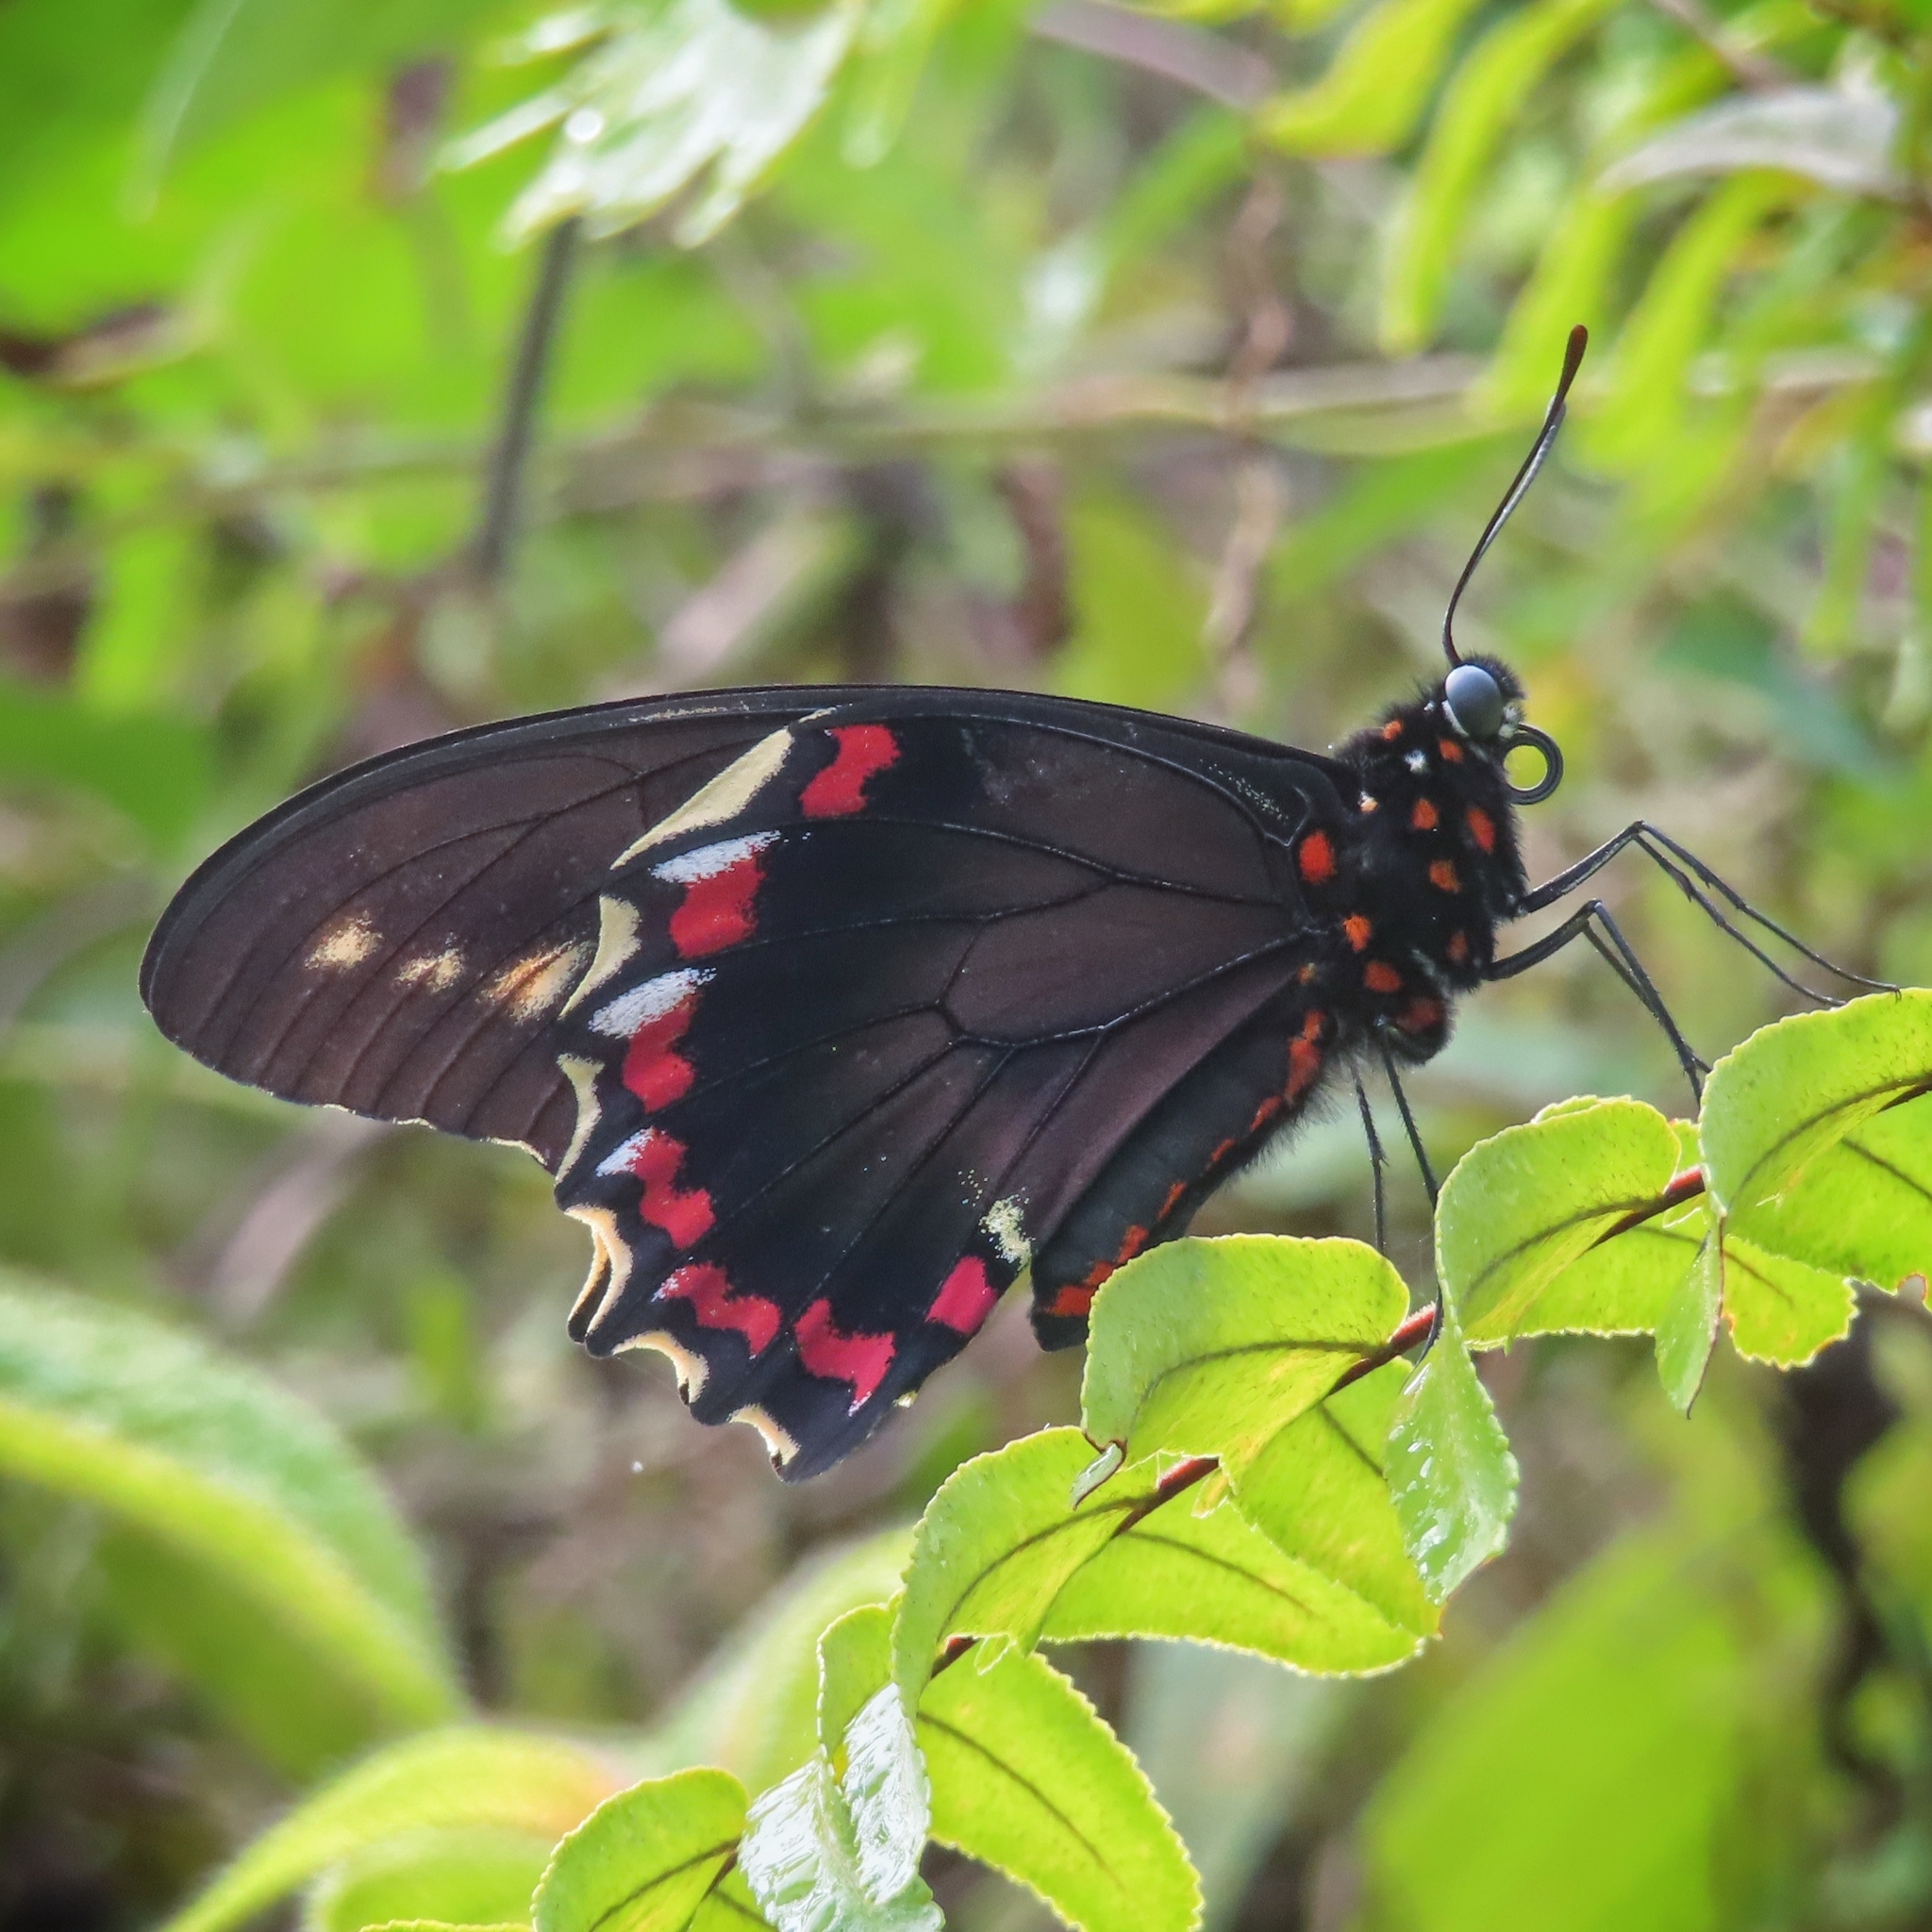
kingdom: Animalia
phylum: Arthropoda
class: Insecta
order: Lepidoptera
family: Papilionidae
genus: Battus
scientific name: Battus polydamas
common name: Polydamas swallowtail
